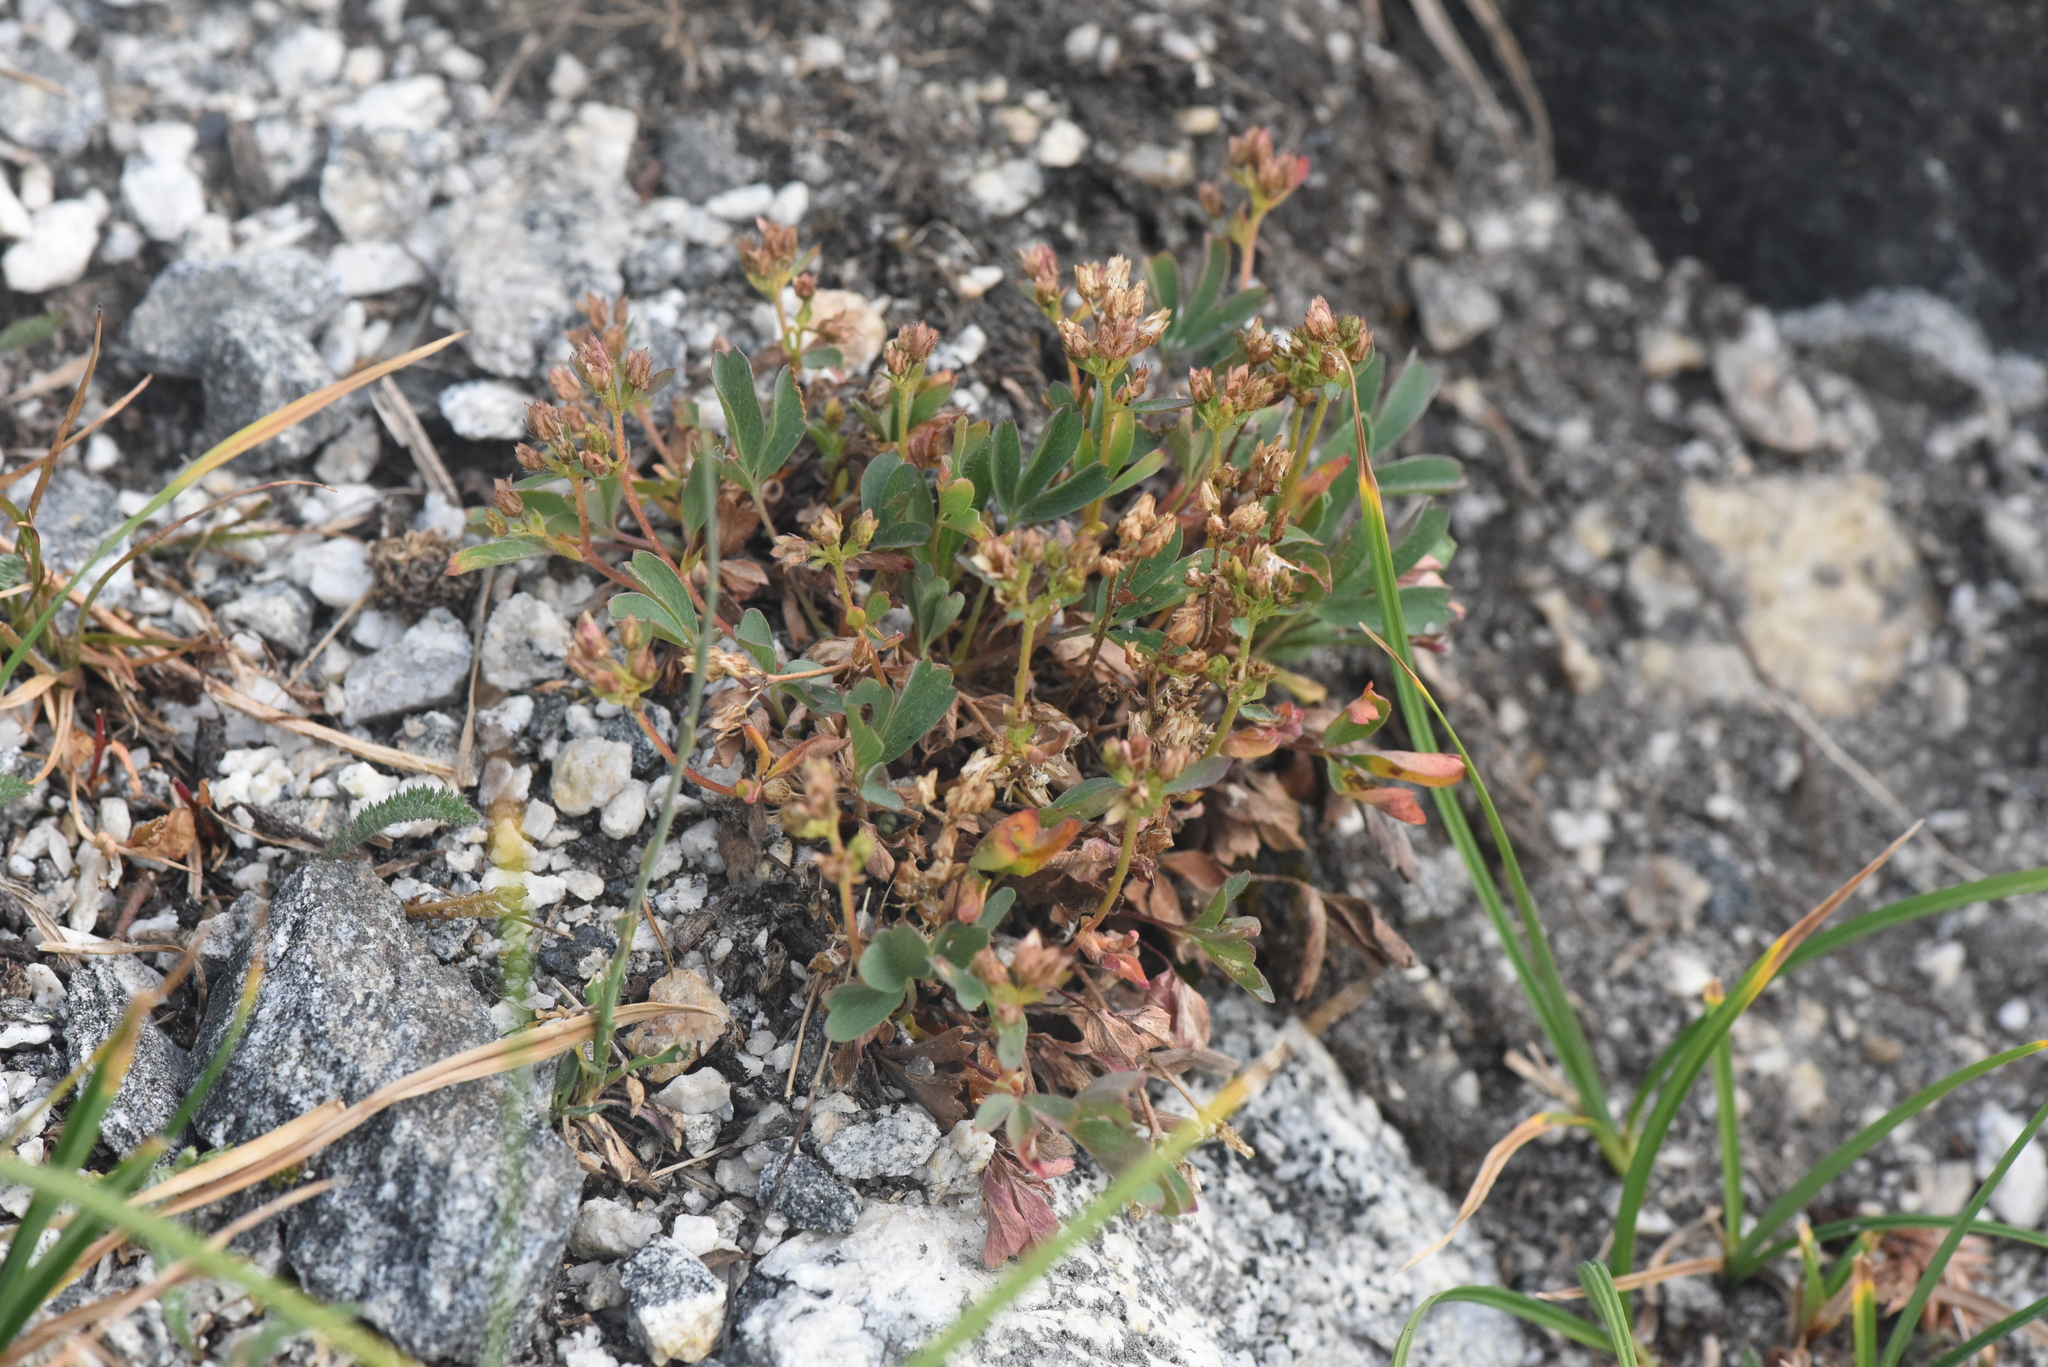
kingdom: Plantae
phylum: Tracheophyta
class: Magnoliopsida
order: Rosales
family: Rosaceae
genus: Sibbaldia
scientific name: Sibbaldia procumbens
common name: Creeping sibbaldia
